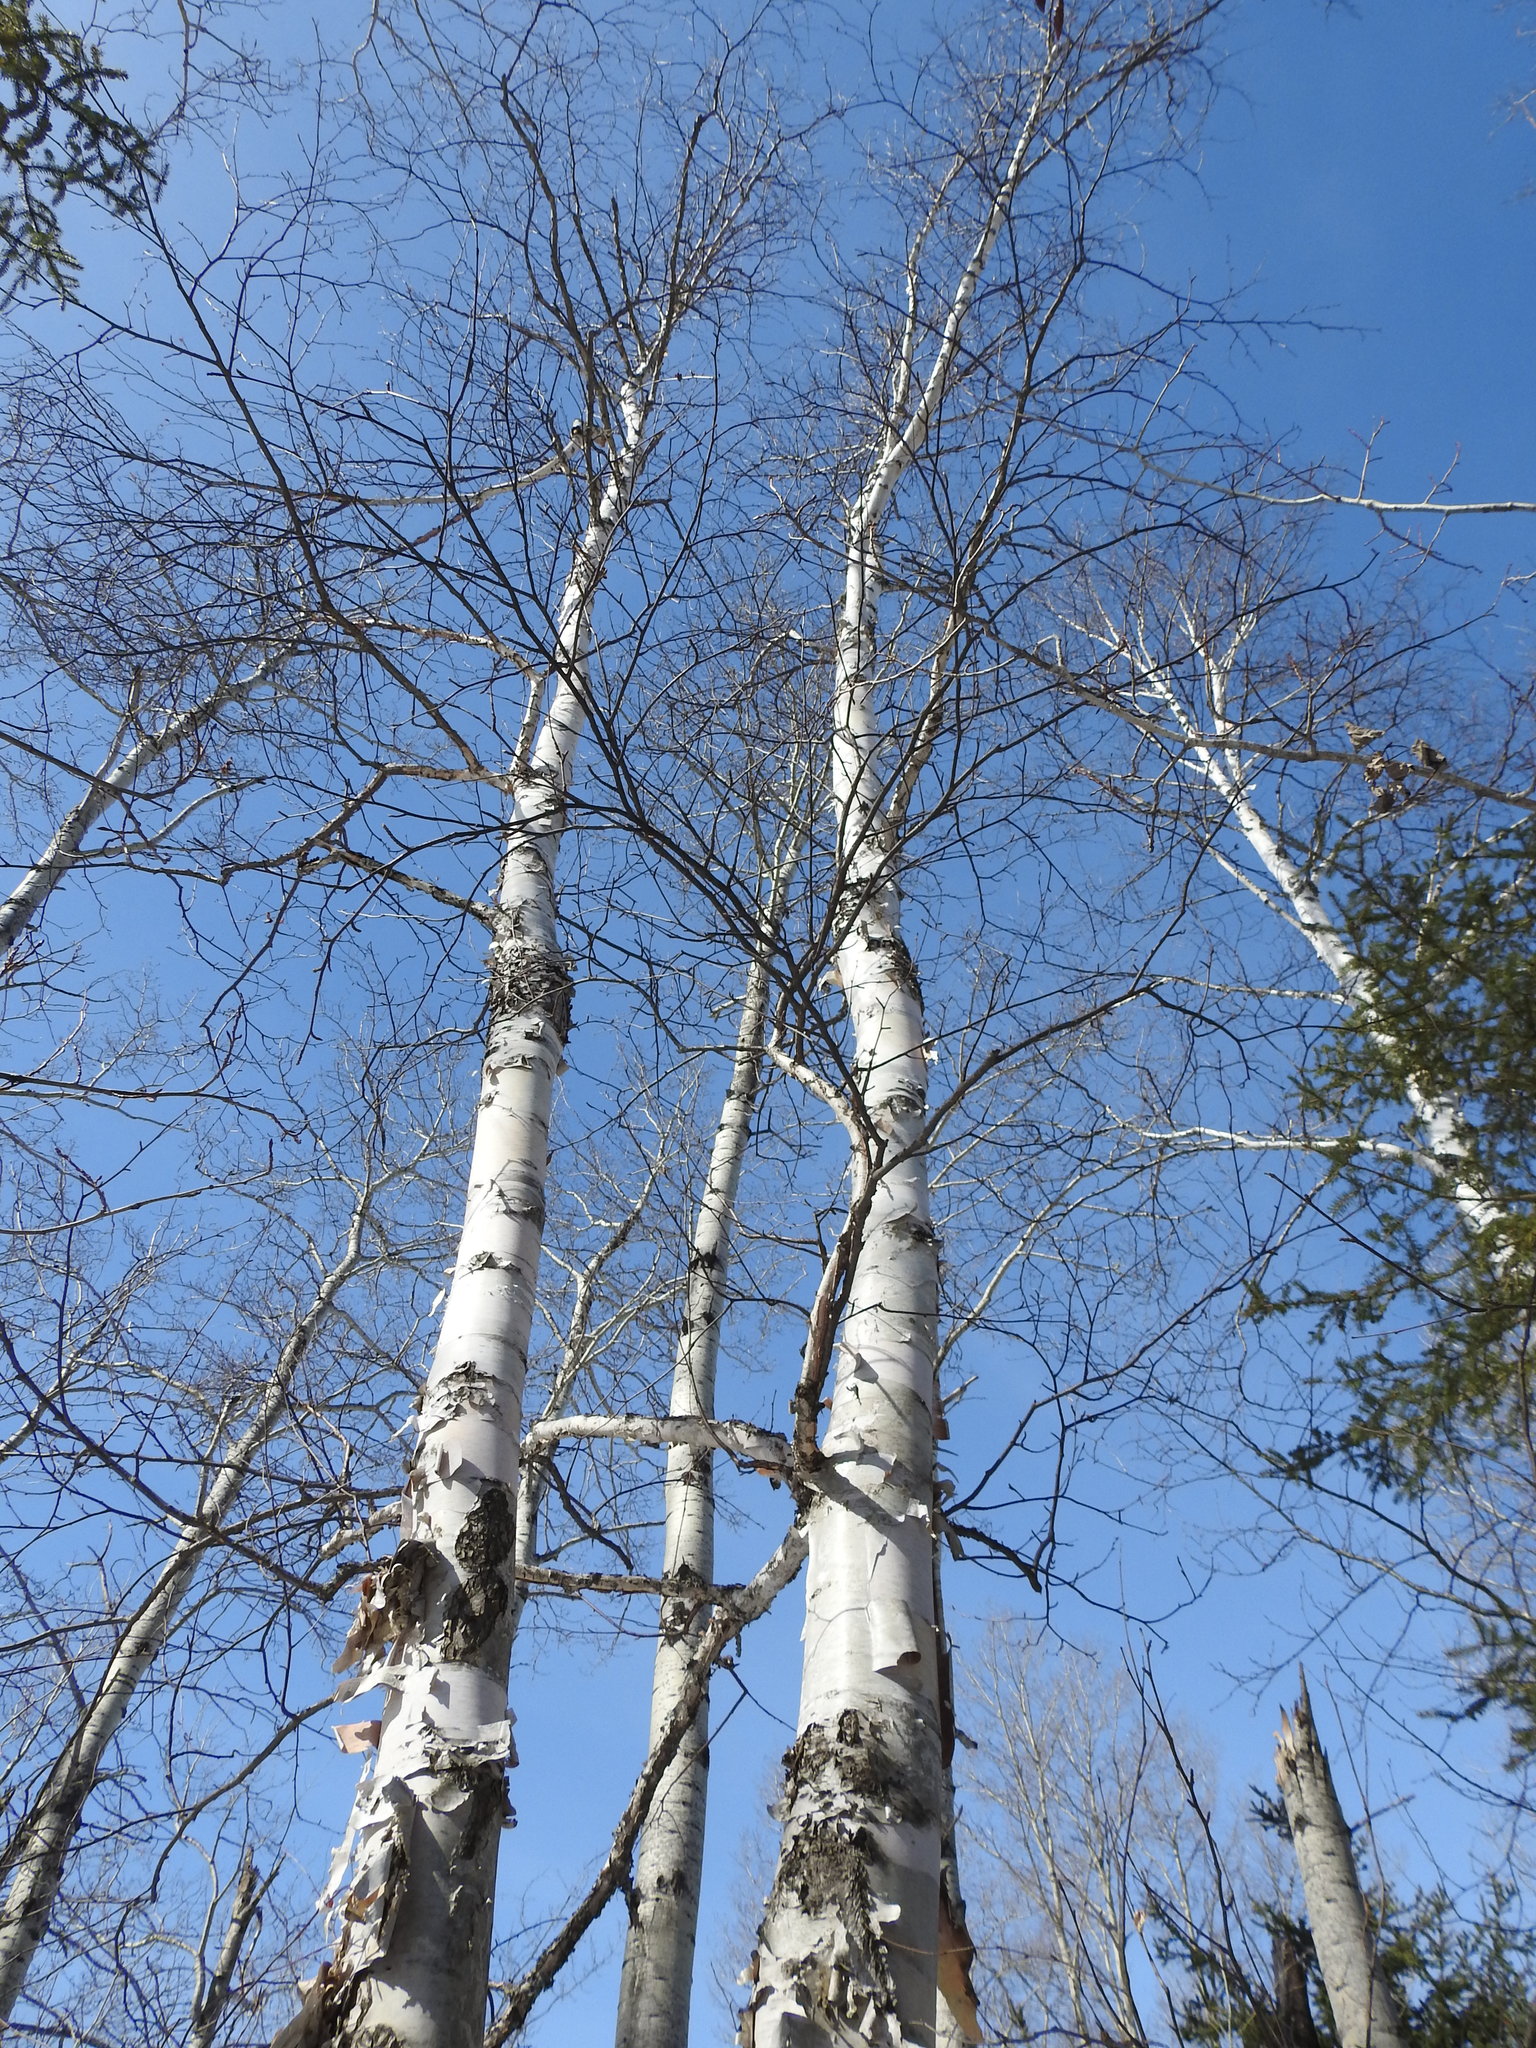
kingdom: Plantae
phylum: Tracheophyta
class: Magnoliopsida
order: Fagales
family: Betulaceae
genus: Betula
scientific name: Betula papyrifera
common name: Paper birch
